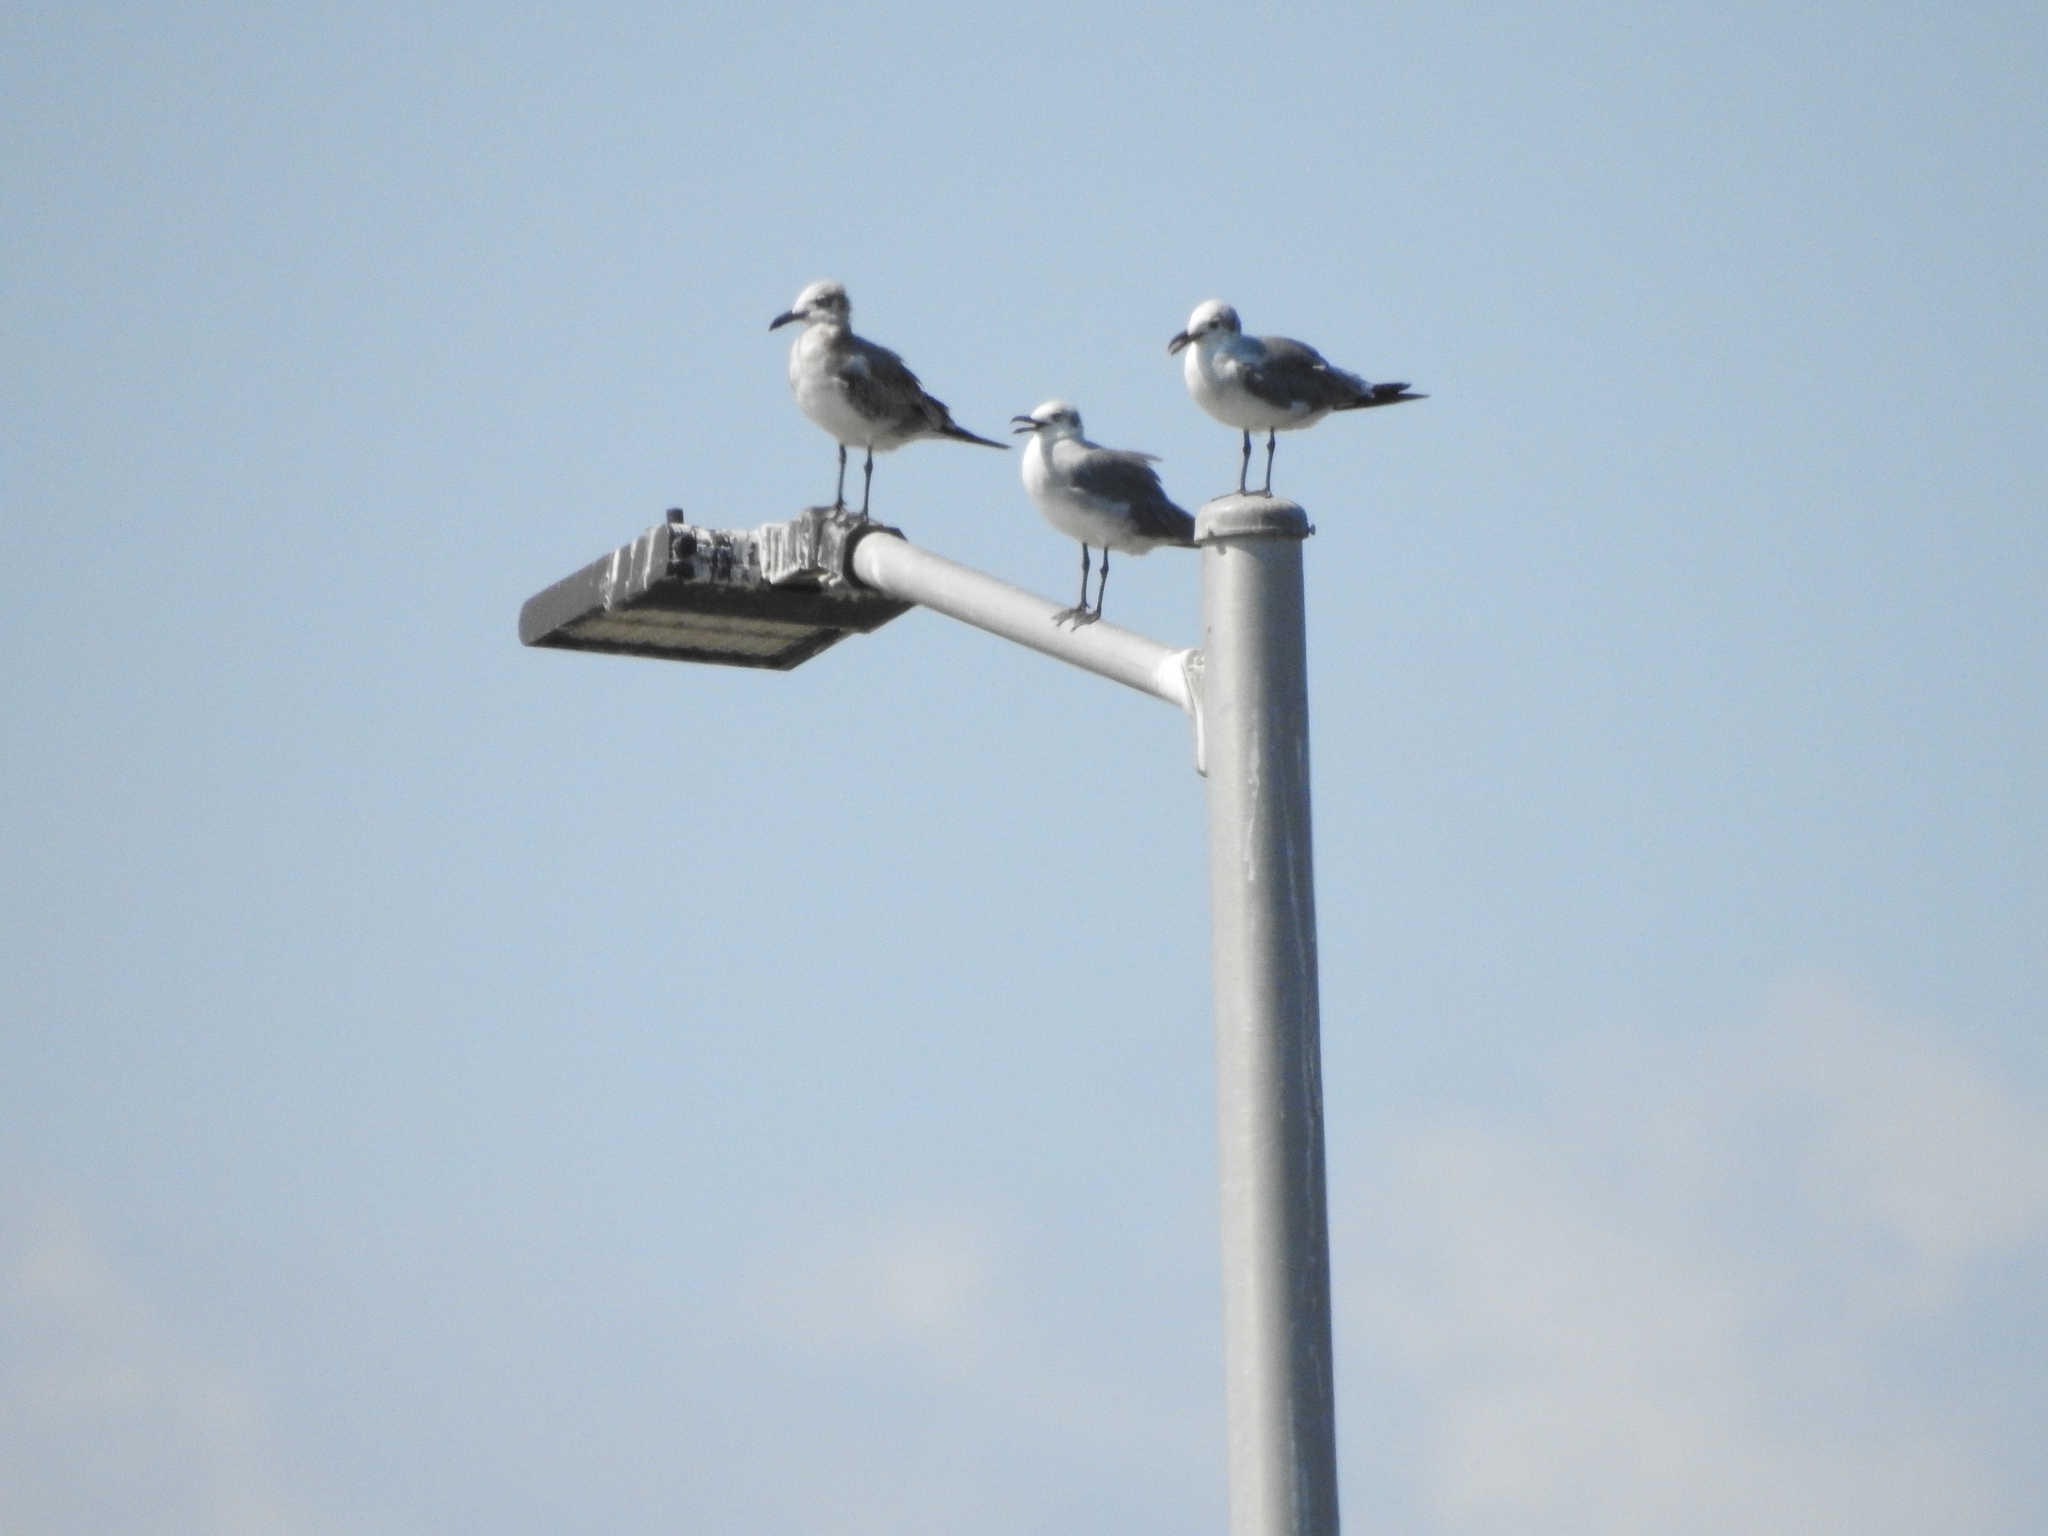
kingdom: Animalia
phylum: Chordata
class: Aves
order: Charadriiformes
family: Laridae
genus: Leucophaeus
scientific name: Leucophaeus atricilla
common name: Laughing gull
